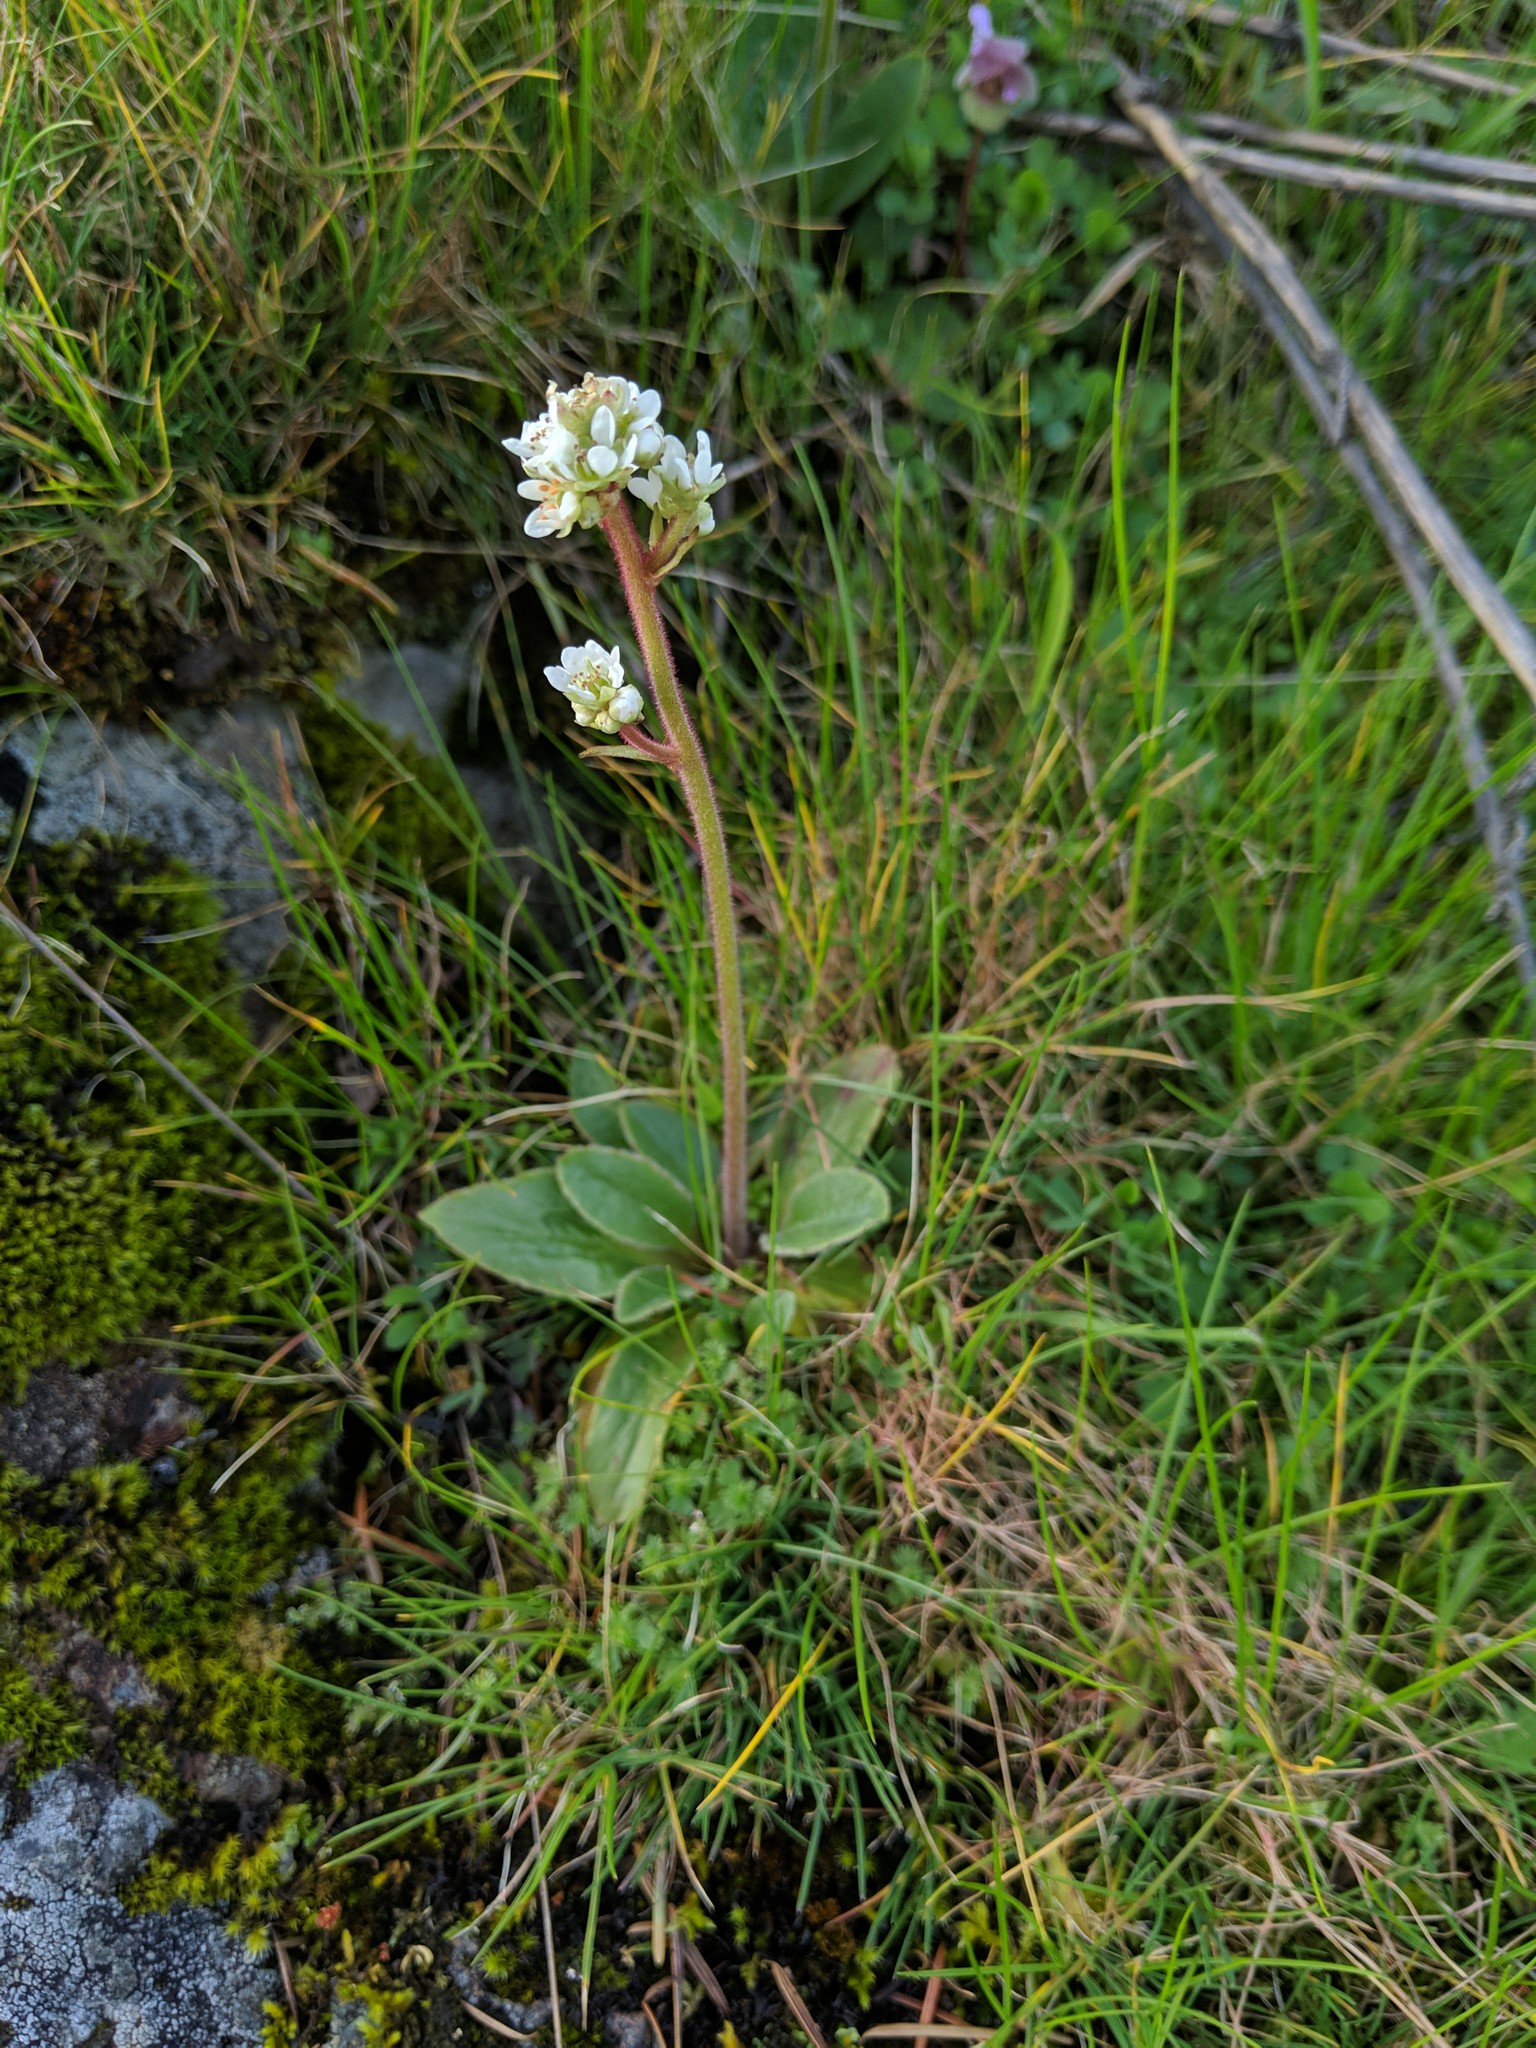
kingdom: Plantae
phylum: Tracheophyta
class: Magnoliopsida
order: Saxifragales
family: Saxifragaceae
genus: Micranthes
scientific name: Micranthes integrifolia
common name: Wholeleaf saxifrage
